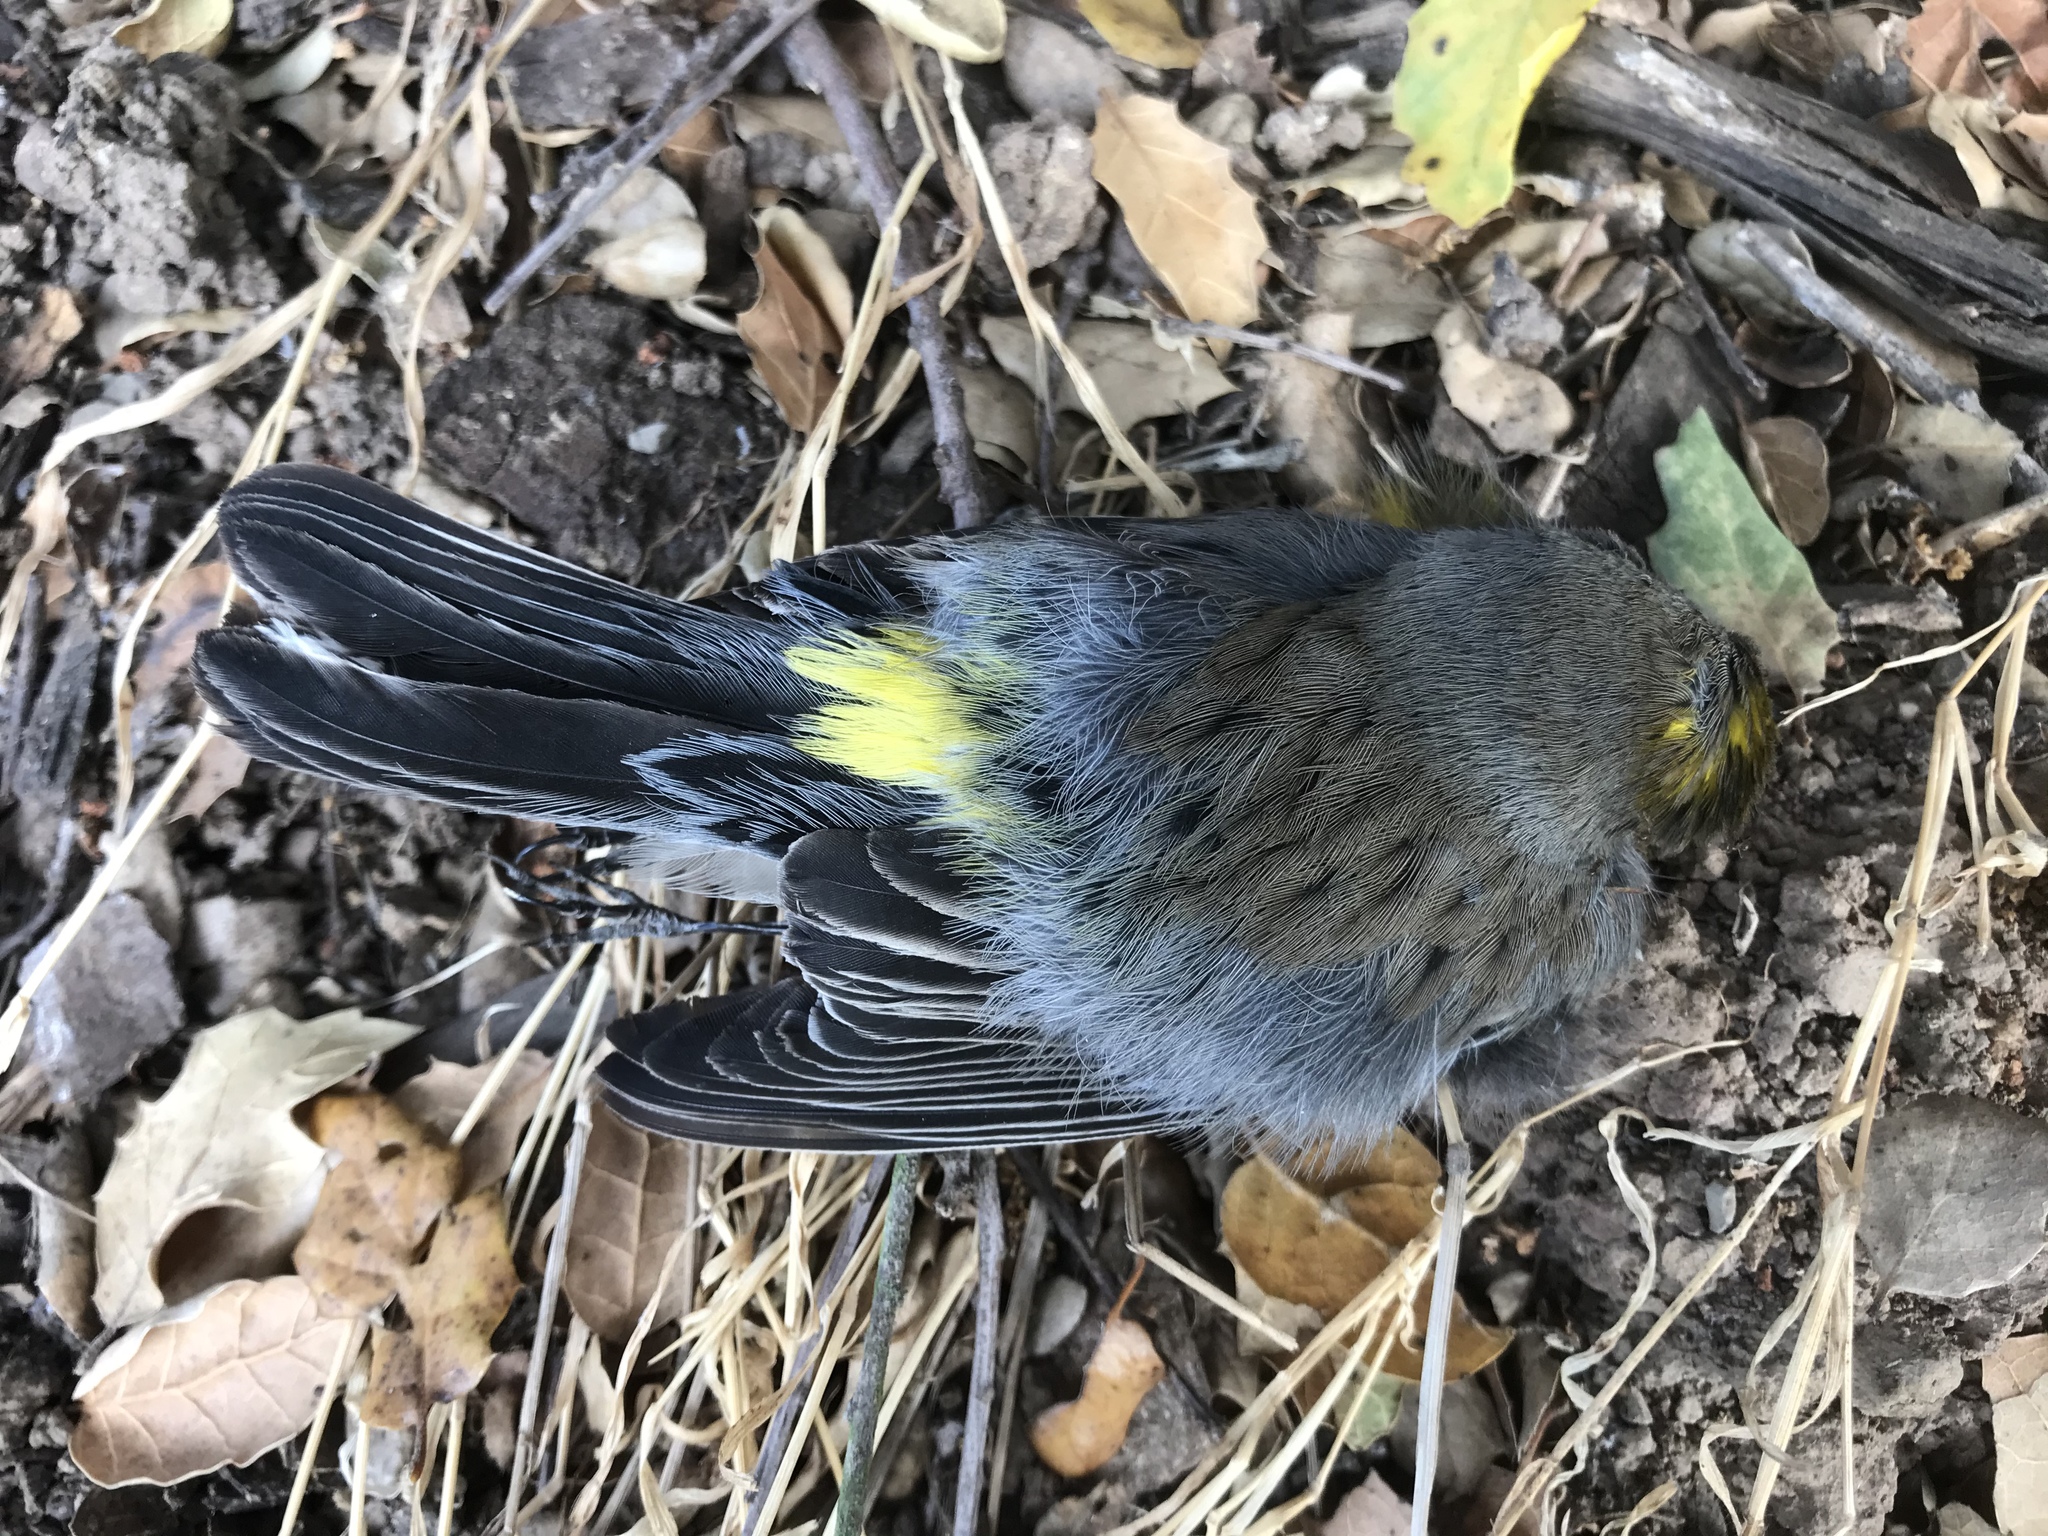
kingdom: Animalia
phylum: Chordata
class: Aves
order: Passeriformes
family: Parulidae
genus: Setophaga
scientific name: Setophaga coronata
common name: Myrtle warbler
